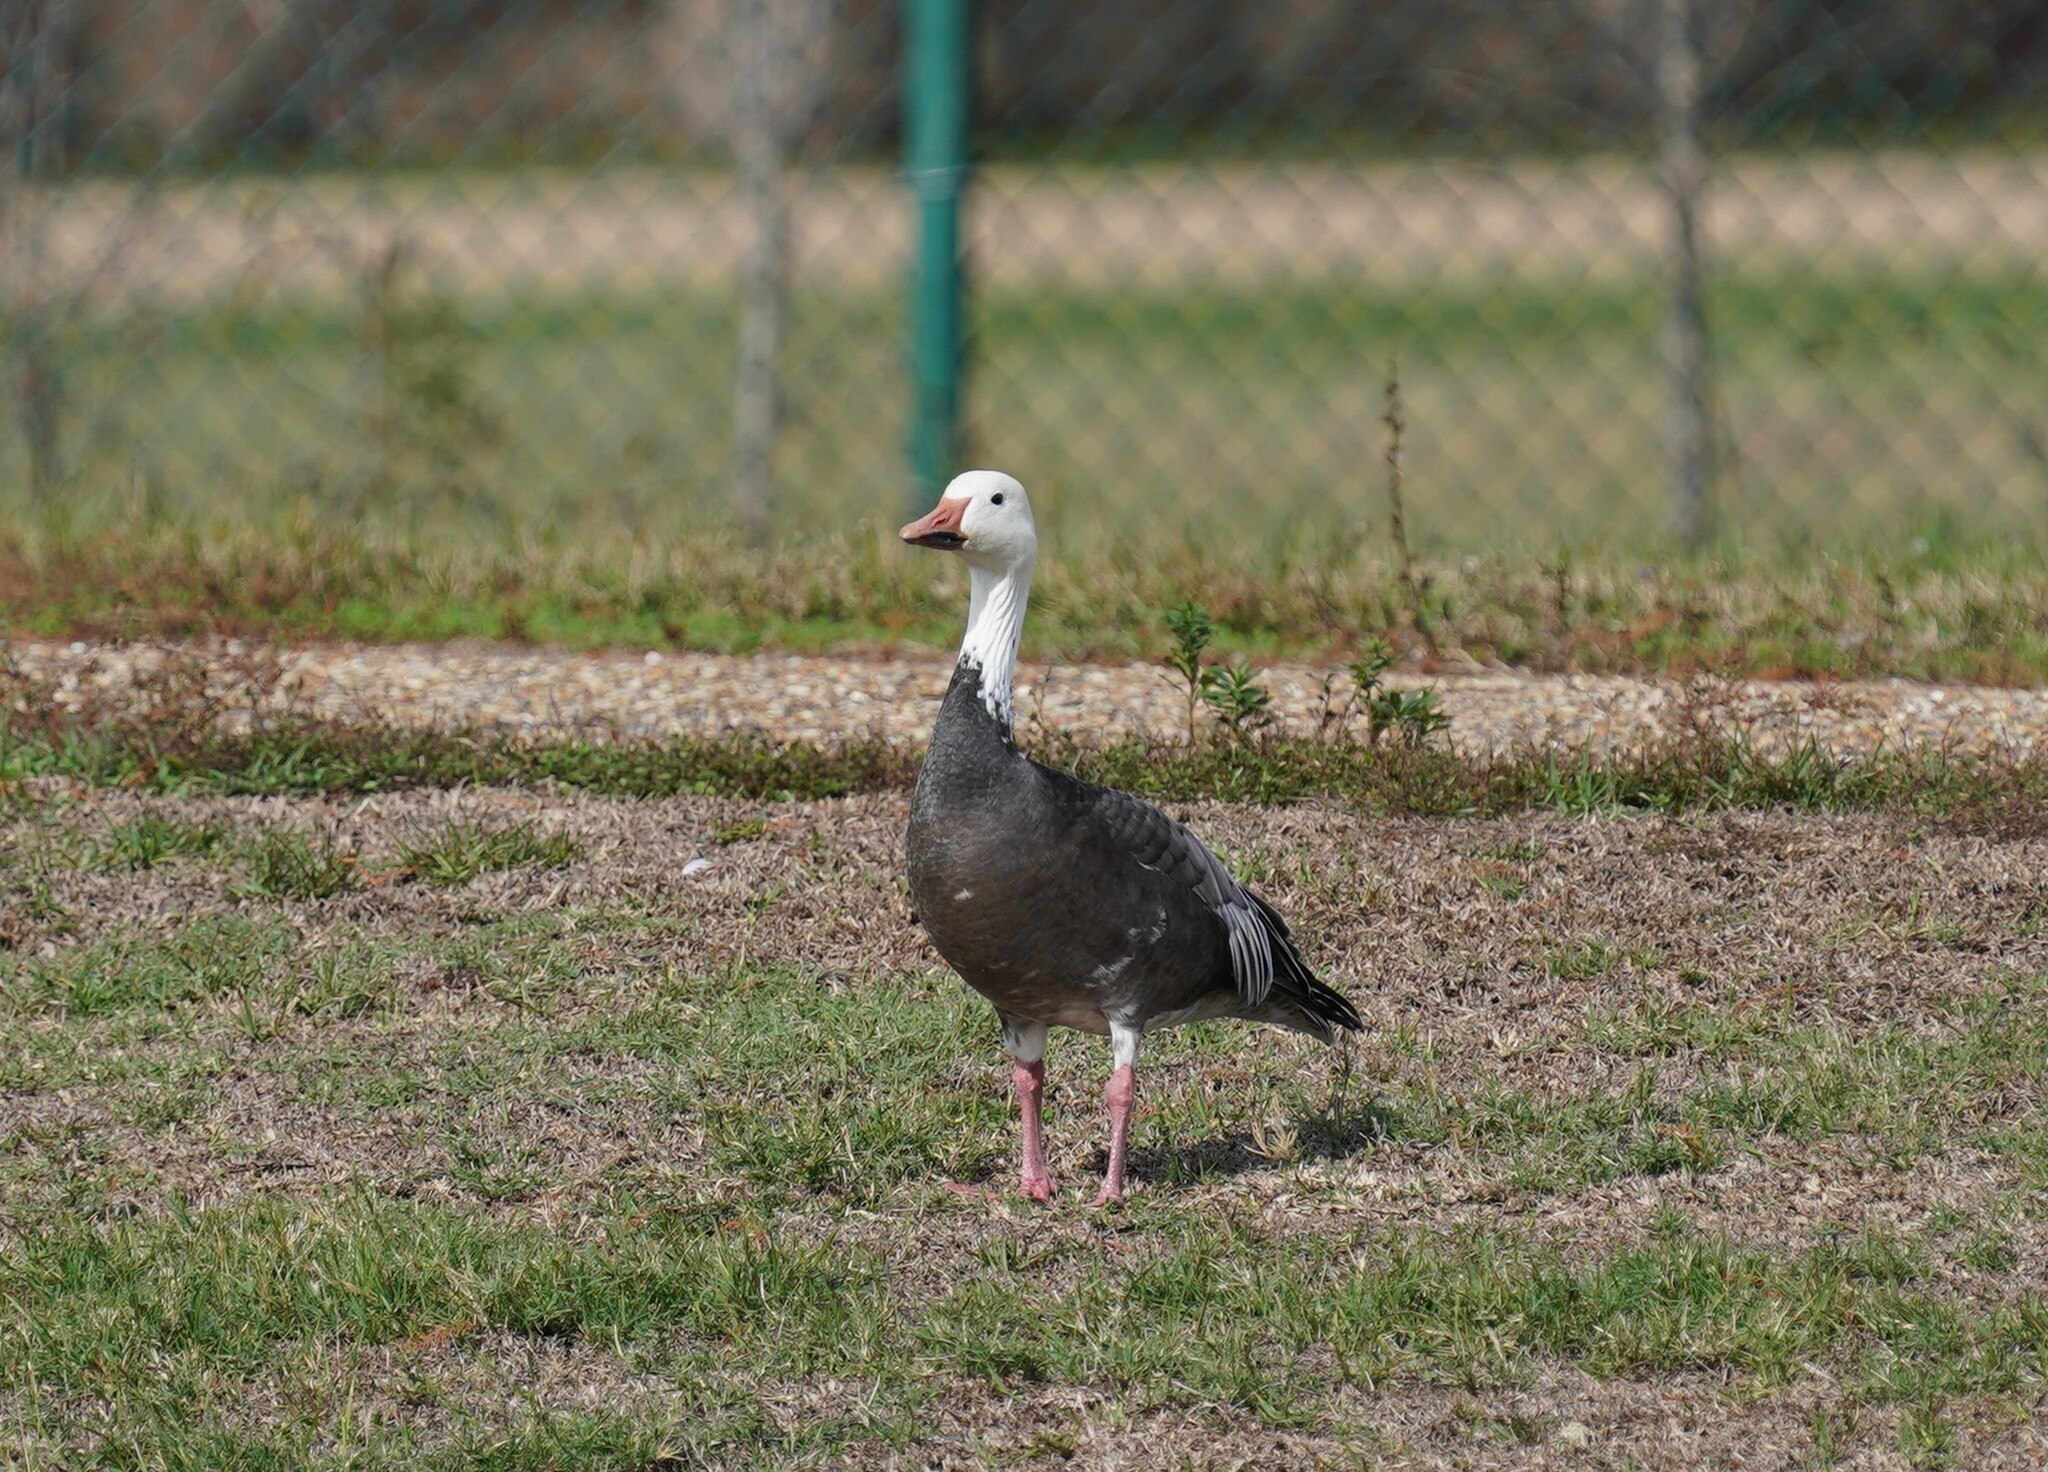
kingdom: Animalia
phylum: Chordata
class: Aves
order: Anseriformes
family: Anatidae
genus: Anser
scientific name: Anser caerulescens
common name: Snow goose
